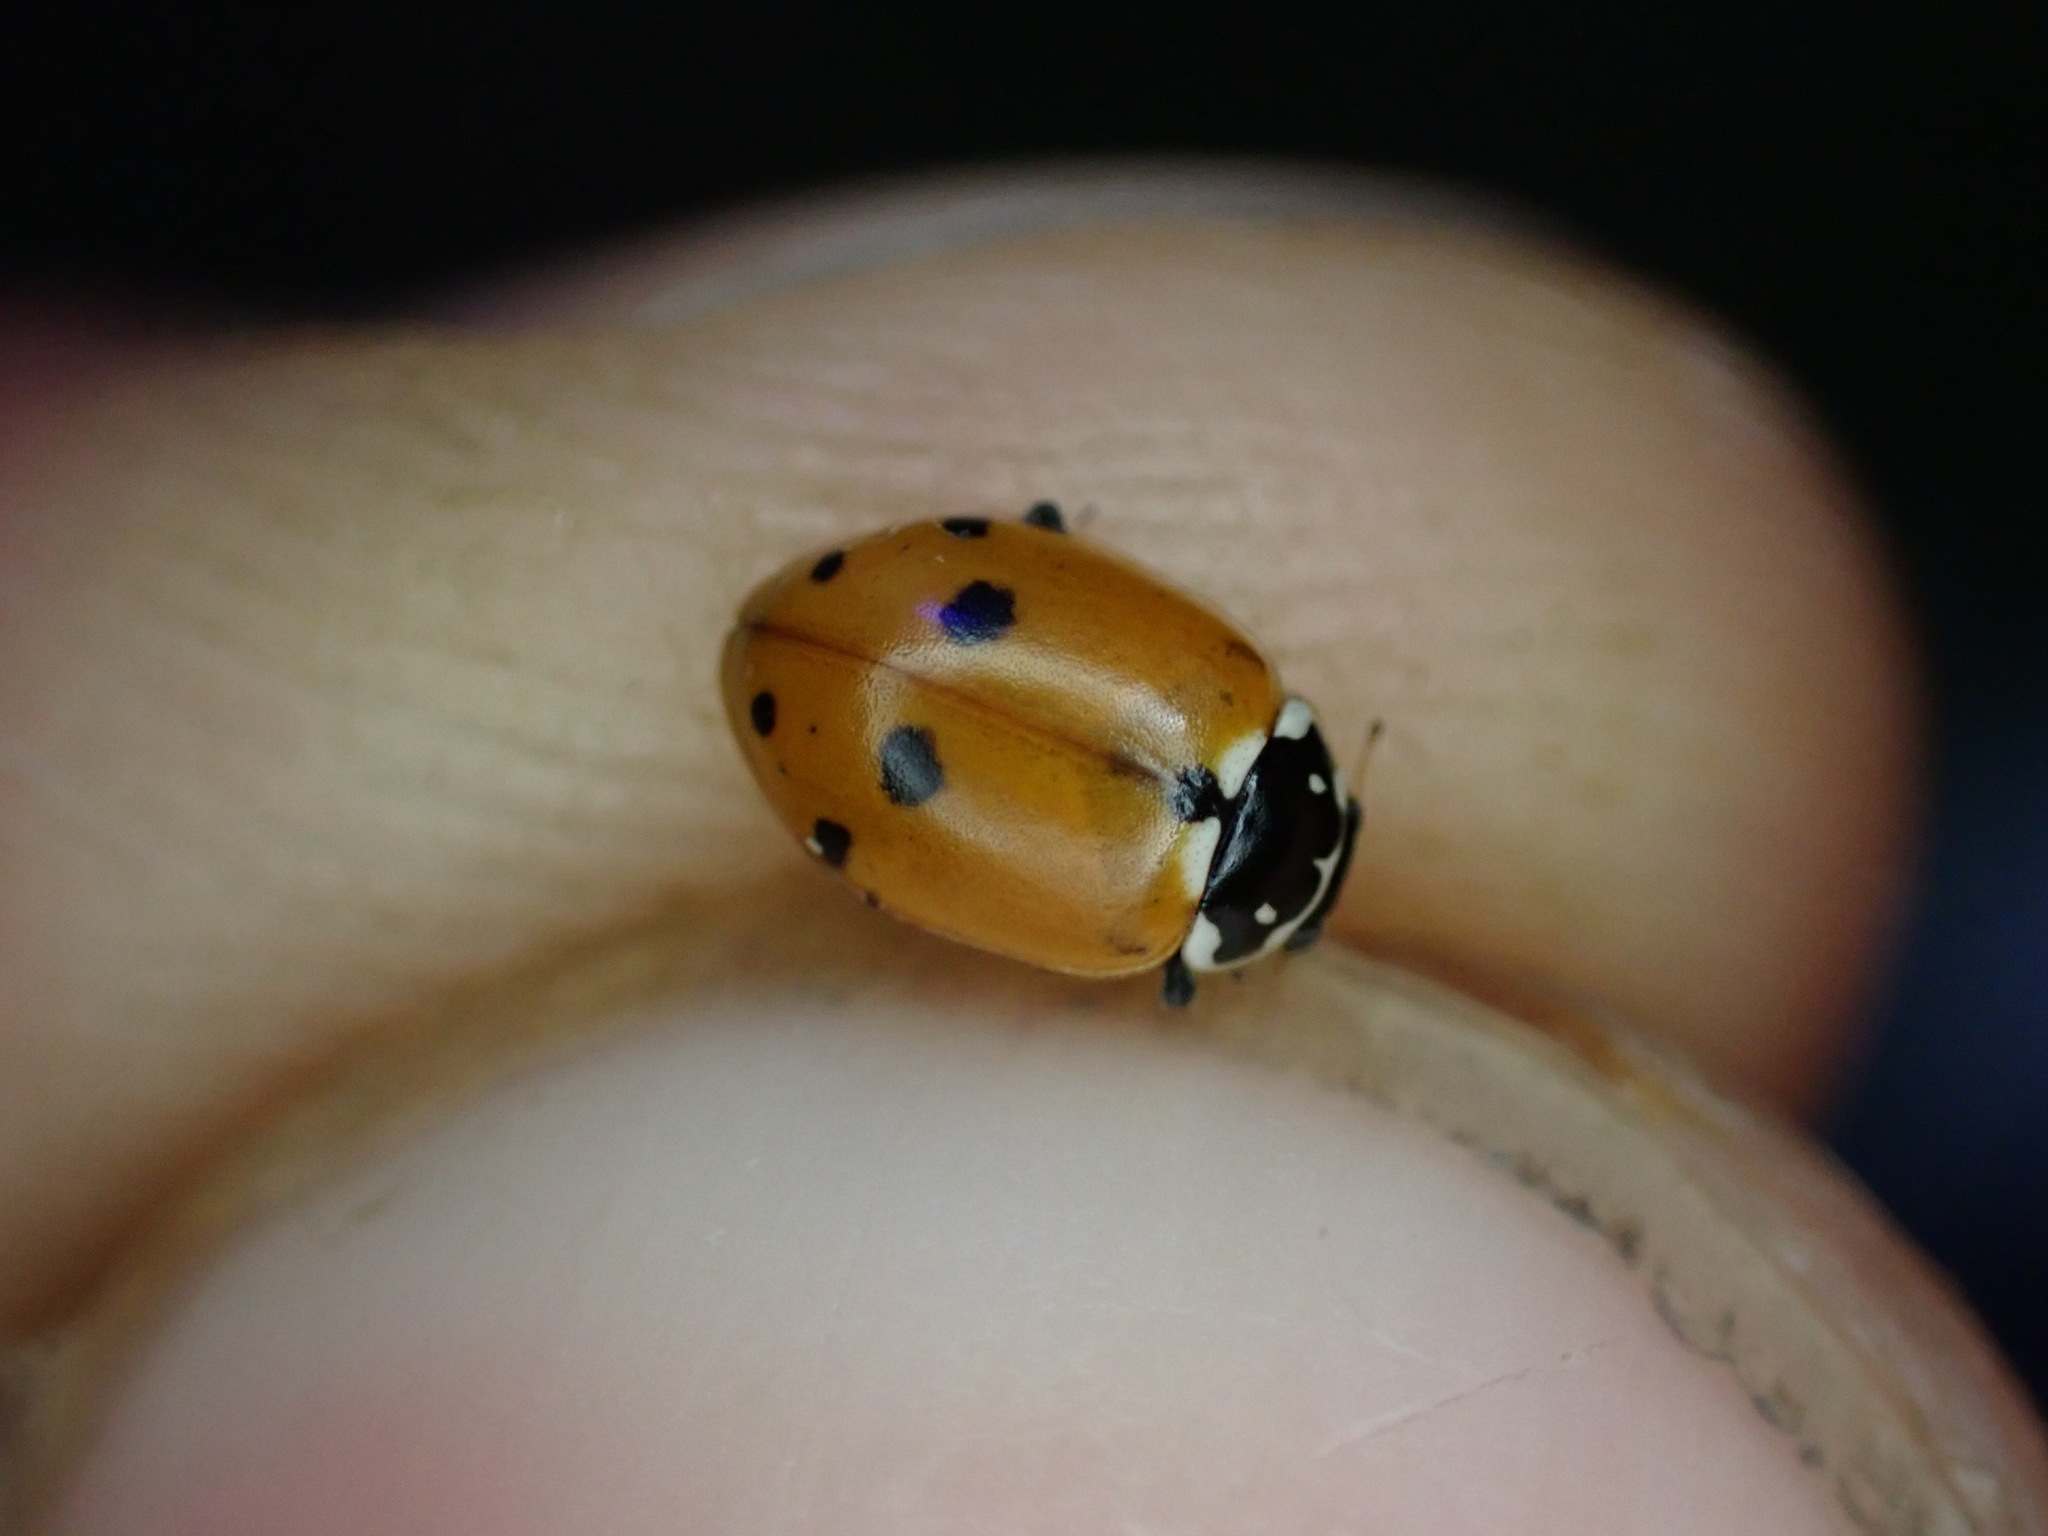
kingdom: Animalia
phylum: Arthropoda
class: Insecta
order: Coleoptera
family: Coccinellidae
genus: Hippodamia
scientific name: Hippodamia variegata
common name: Ladybird beetle
